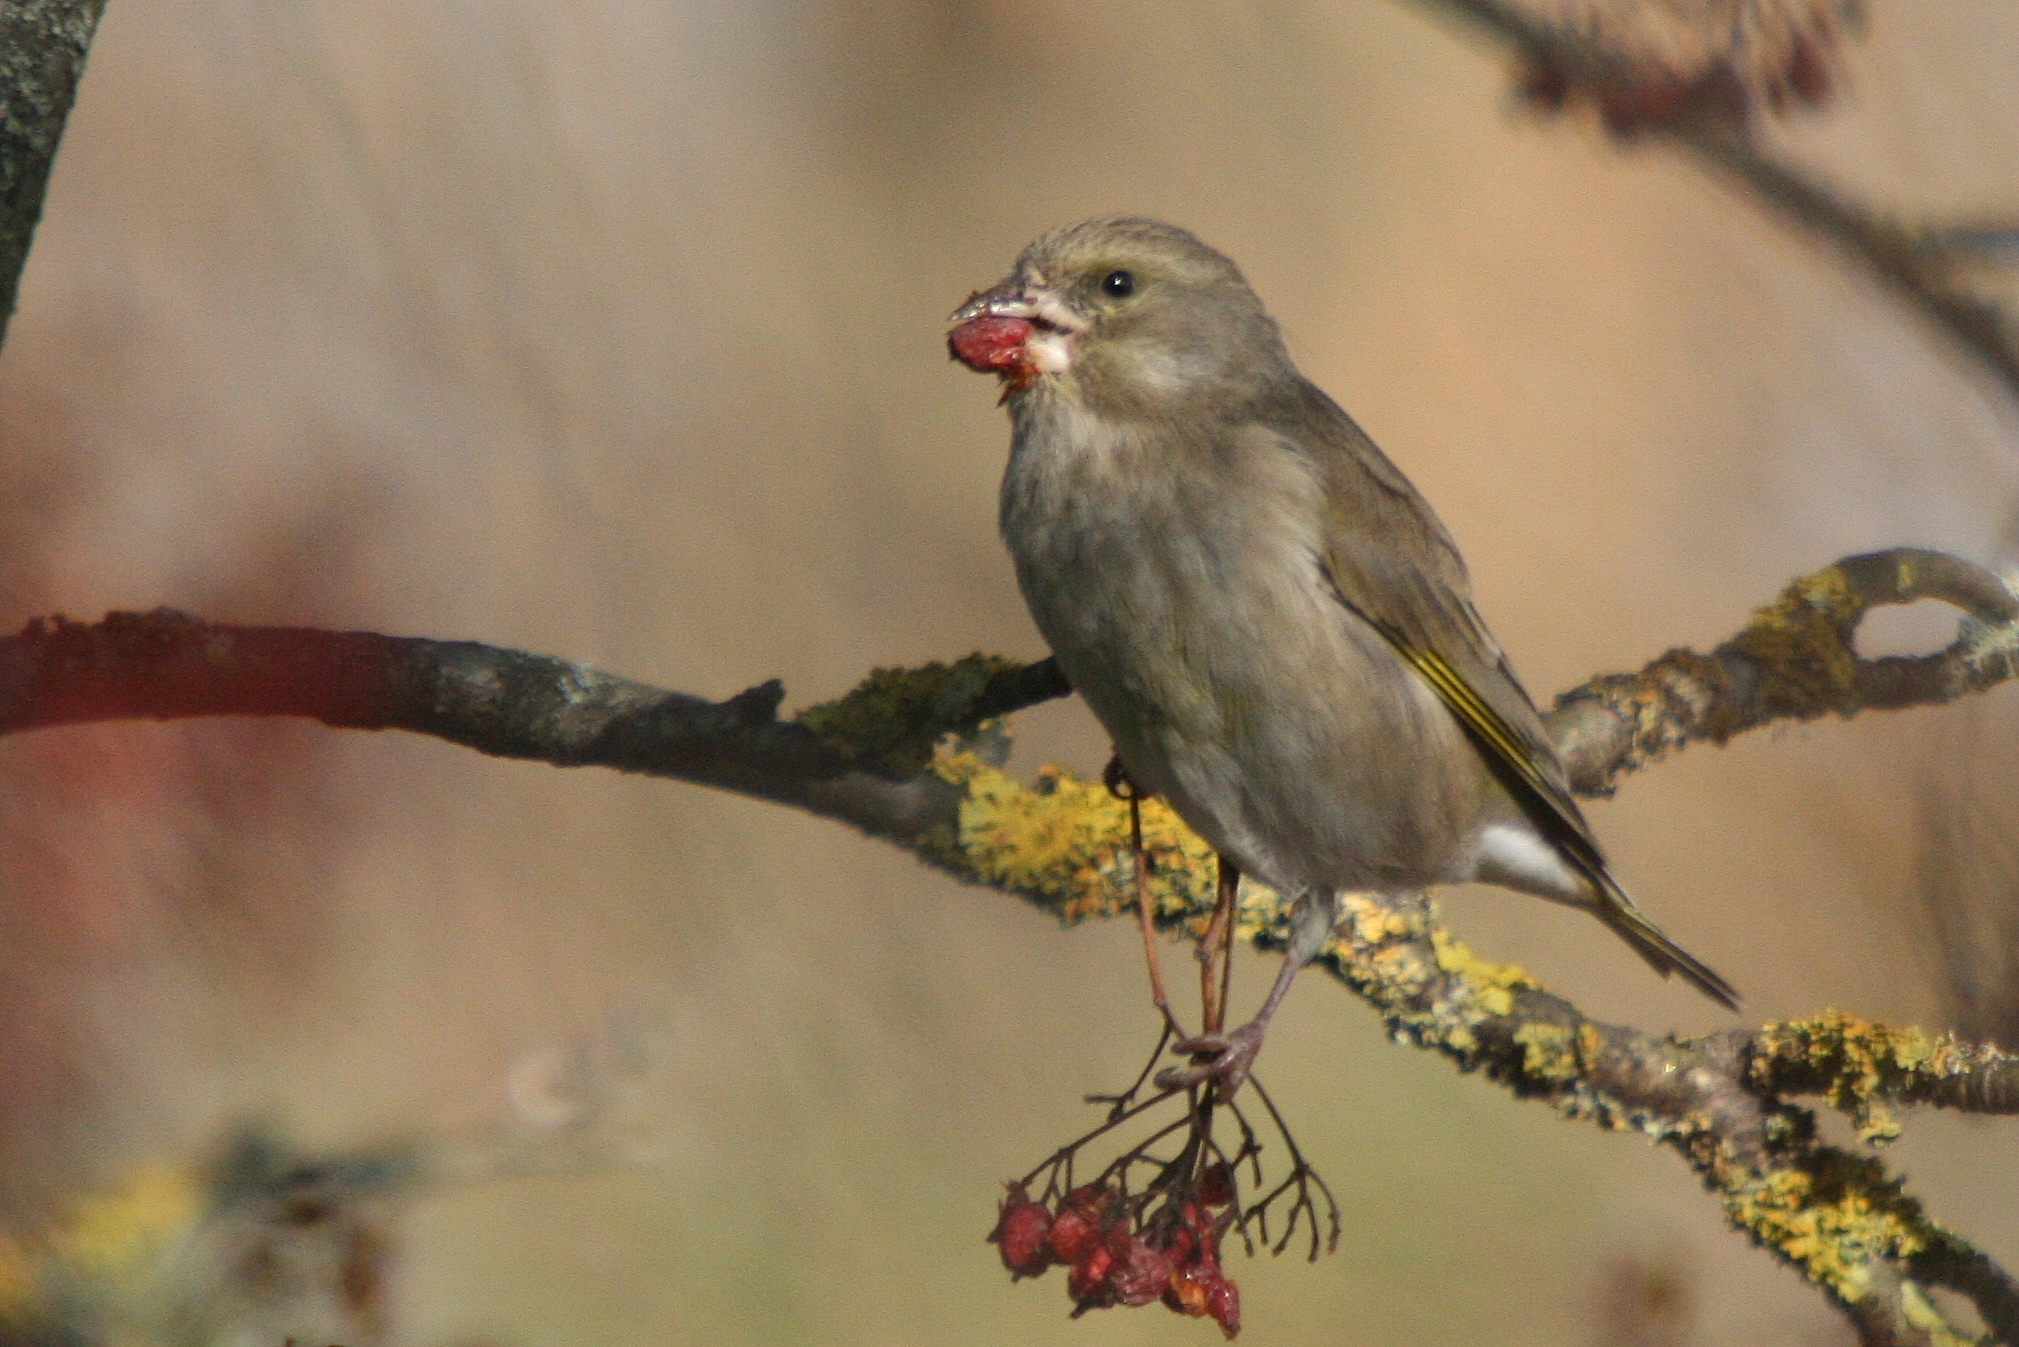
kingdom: Plantae
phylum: Tracheophyta
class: Liliopsida
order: Poales
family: Poaceae
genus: Chloris
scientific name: Chloris chloris
